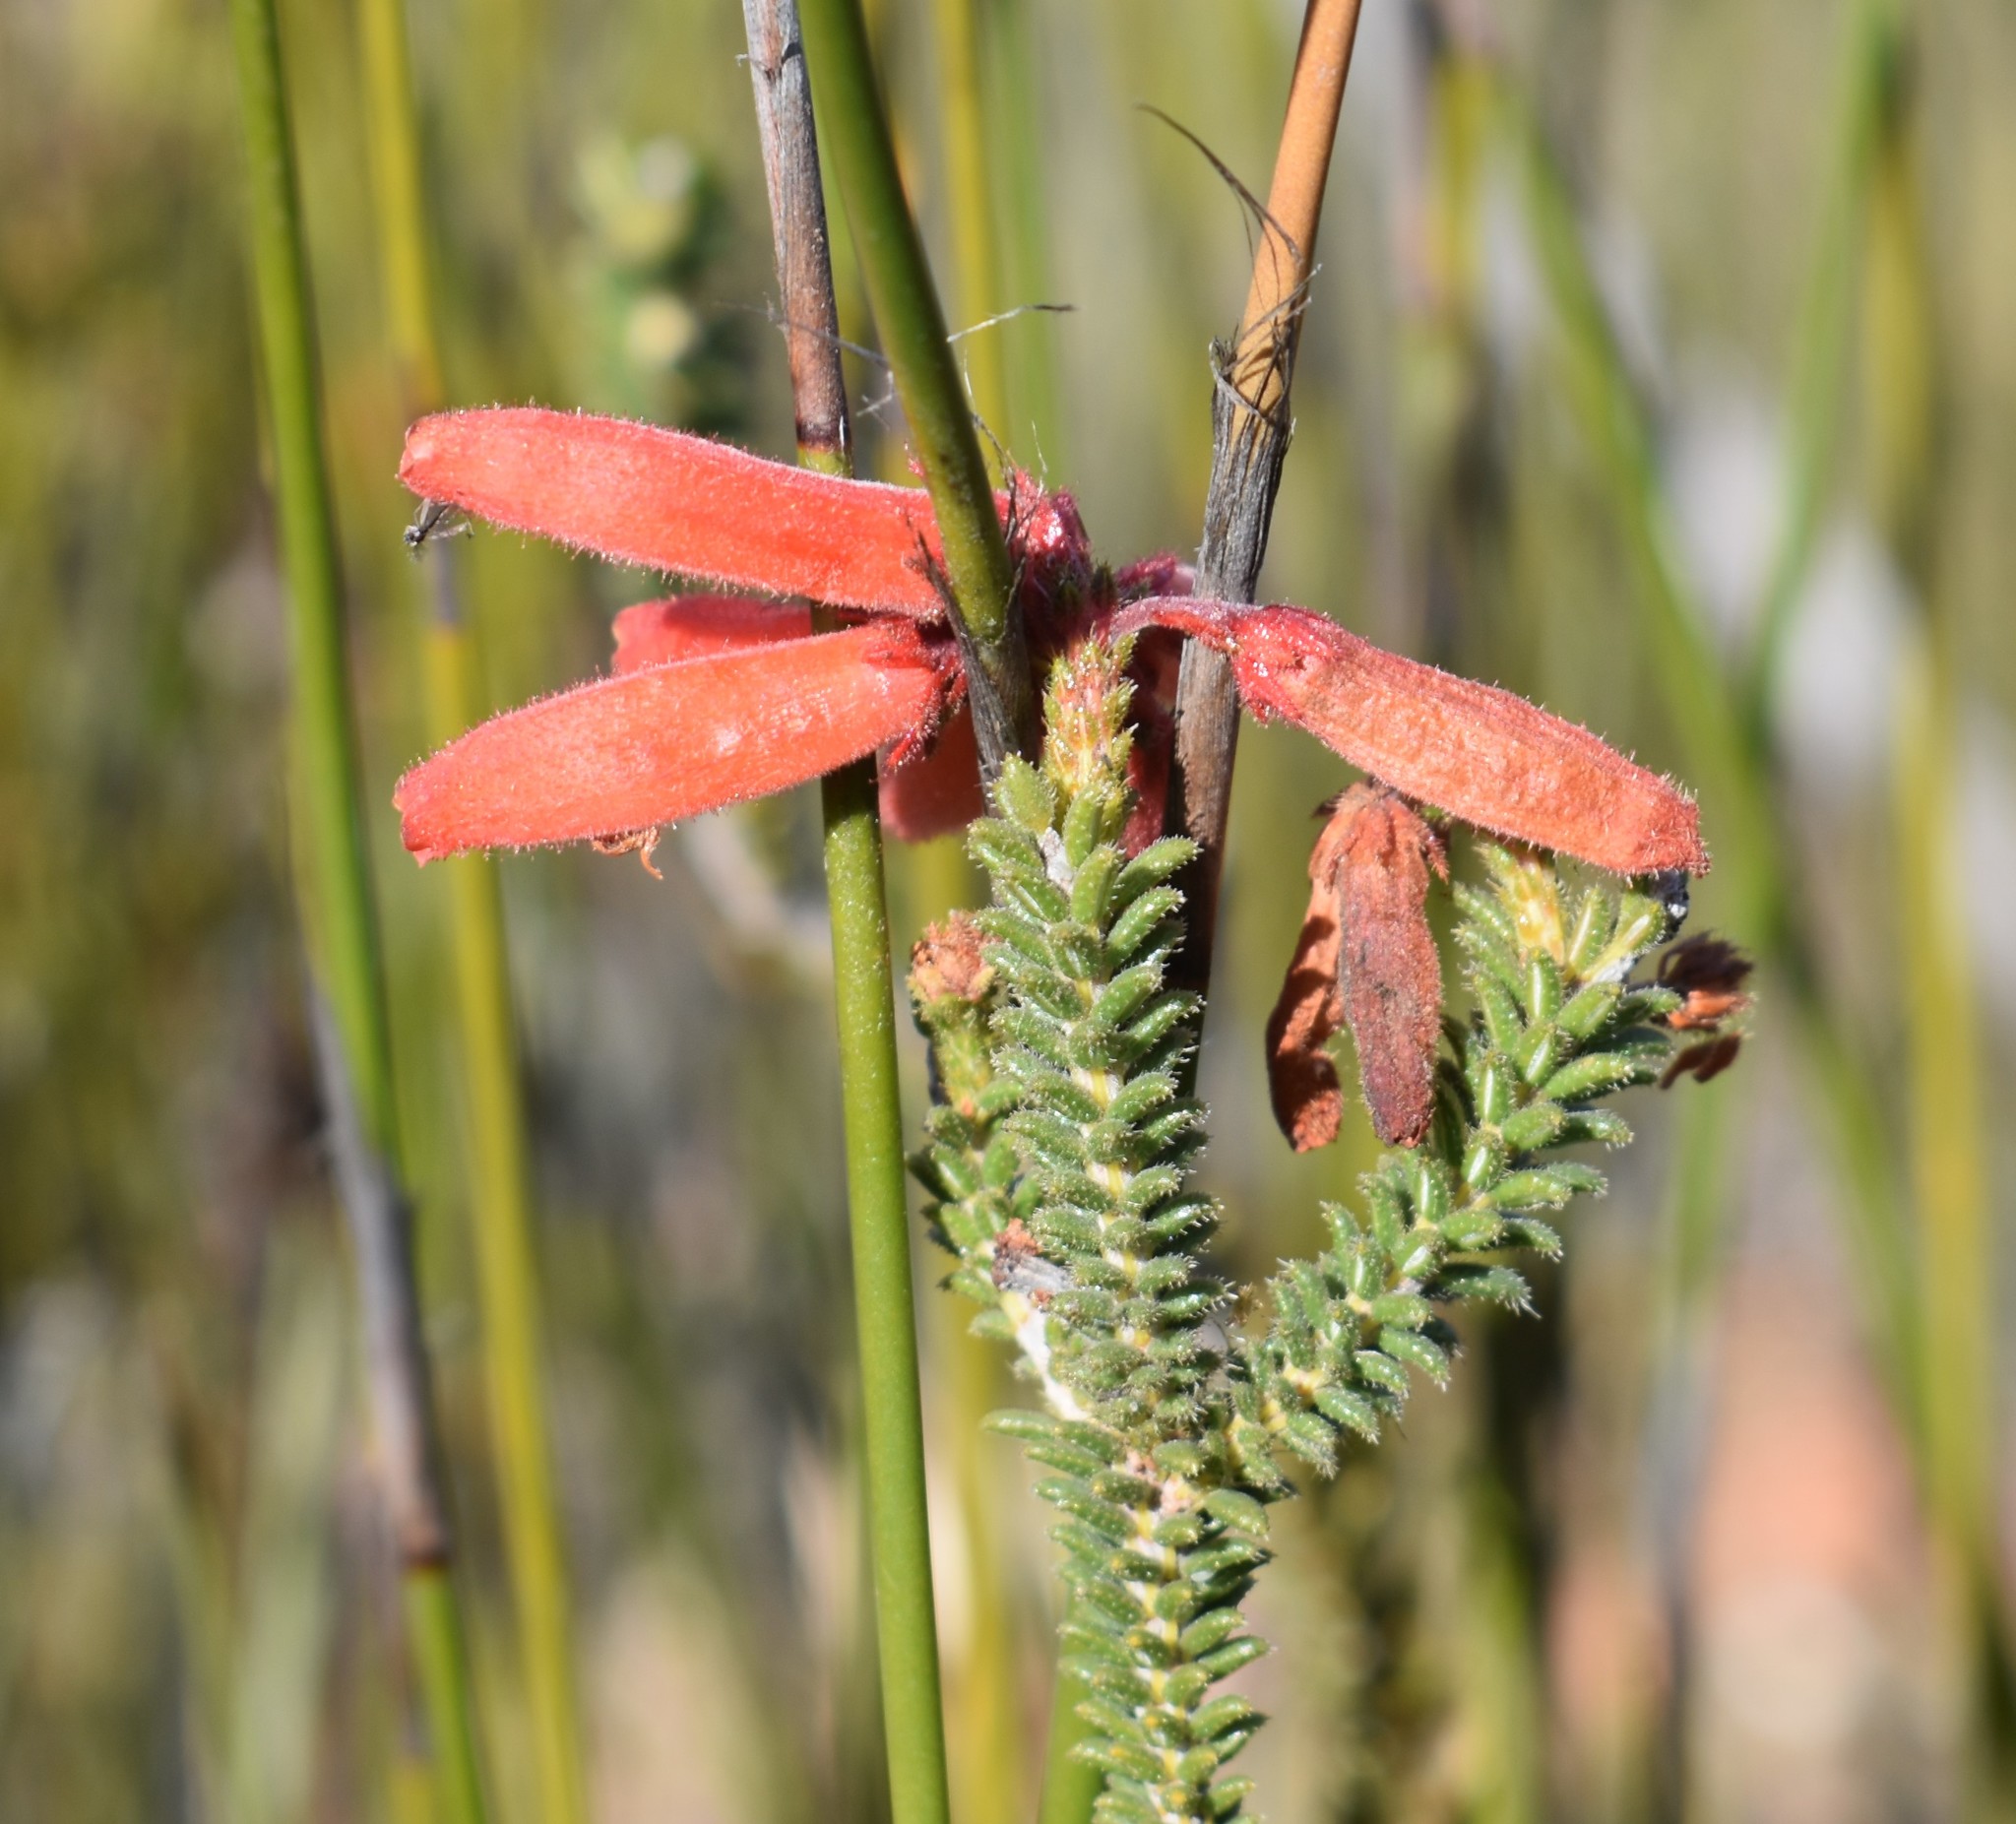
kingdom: Plantae
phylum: Tracheophyta
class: Magnoliopsida
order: Ericales
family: Ericaceae
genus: Erica
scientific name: Erica cerinthoides
